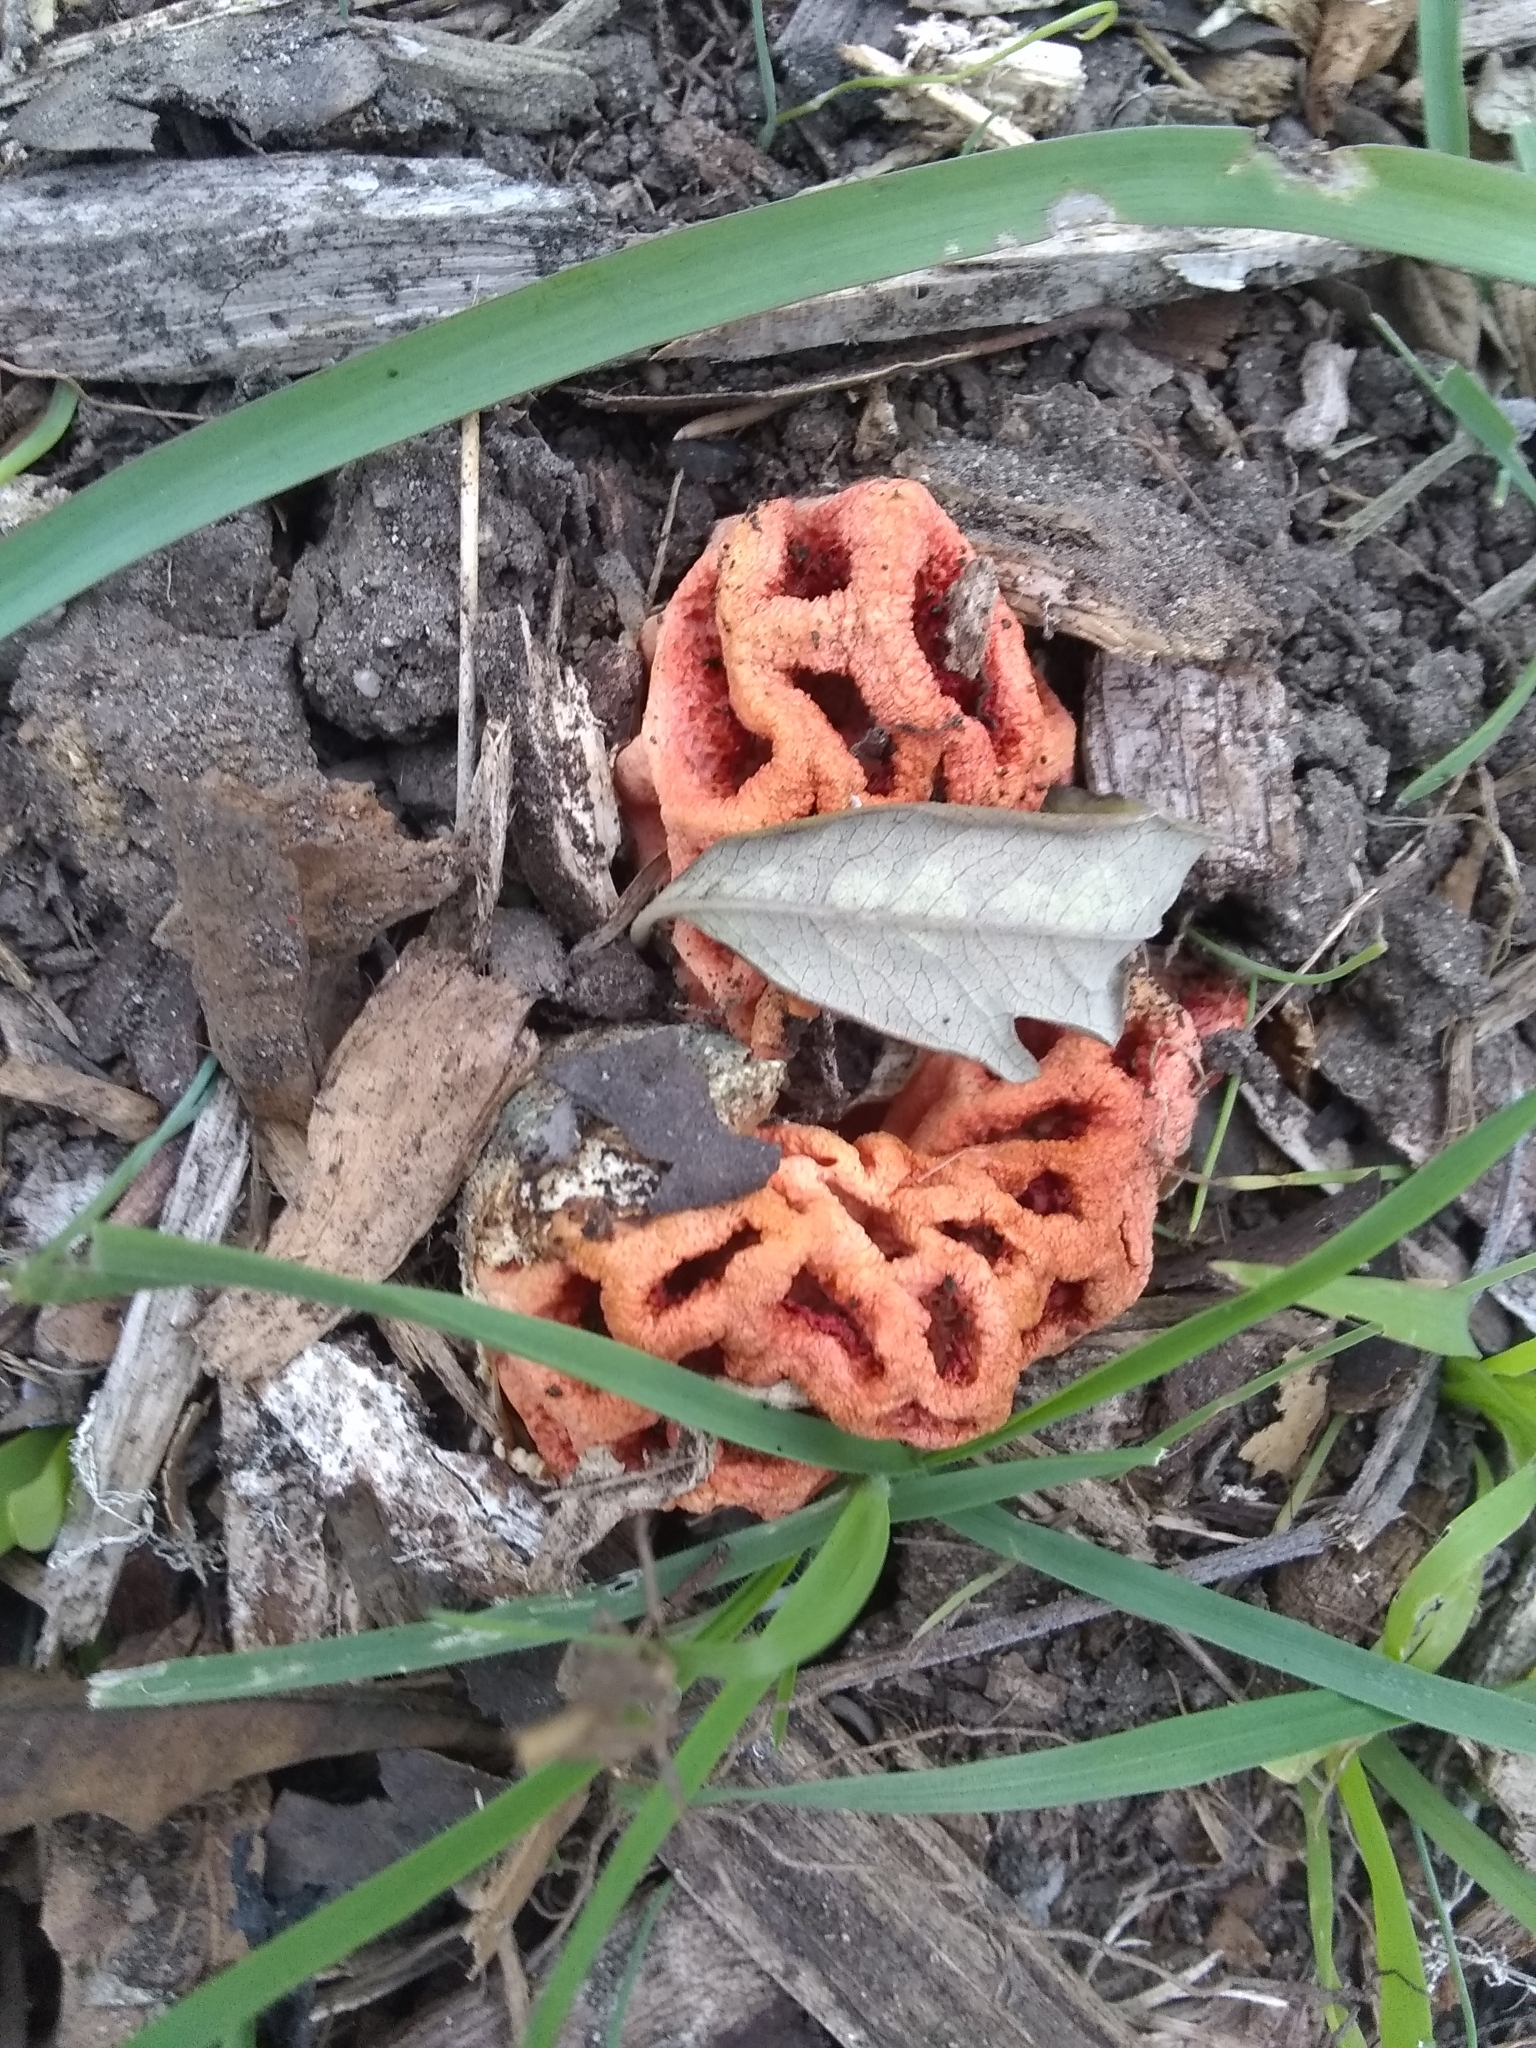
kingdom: Fungi
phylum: Basidiomycota
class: Agaricomycetes
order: Phallales
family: Phallaceae
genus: Clathrus
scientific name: Clathrus ruber
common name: Red cage
